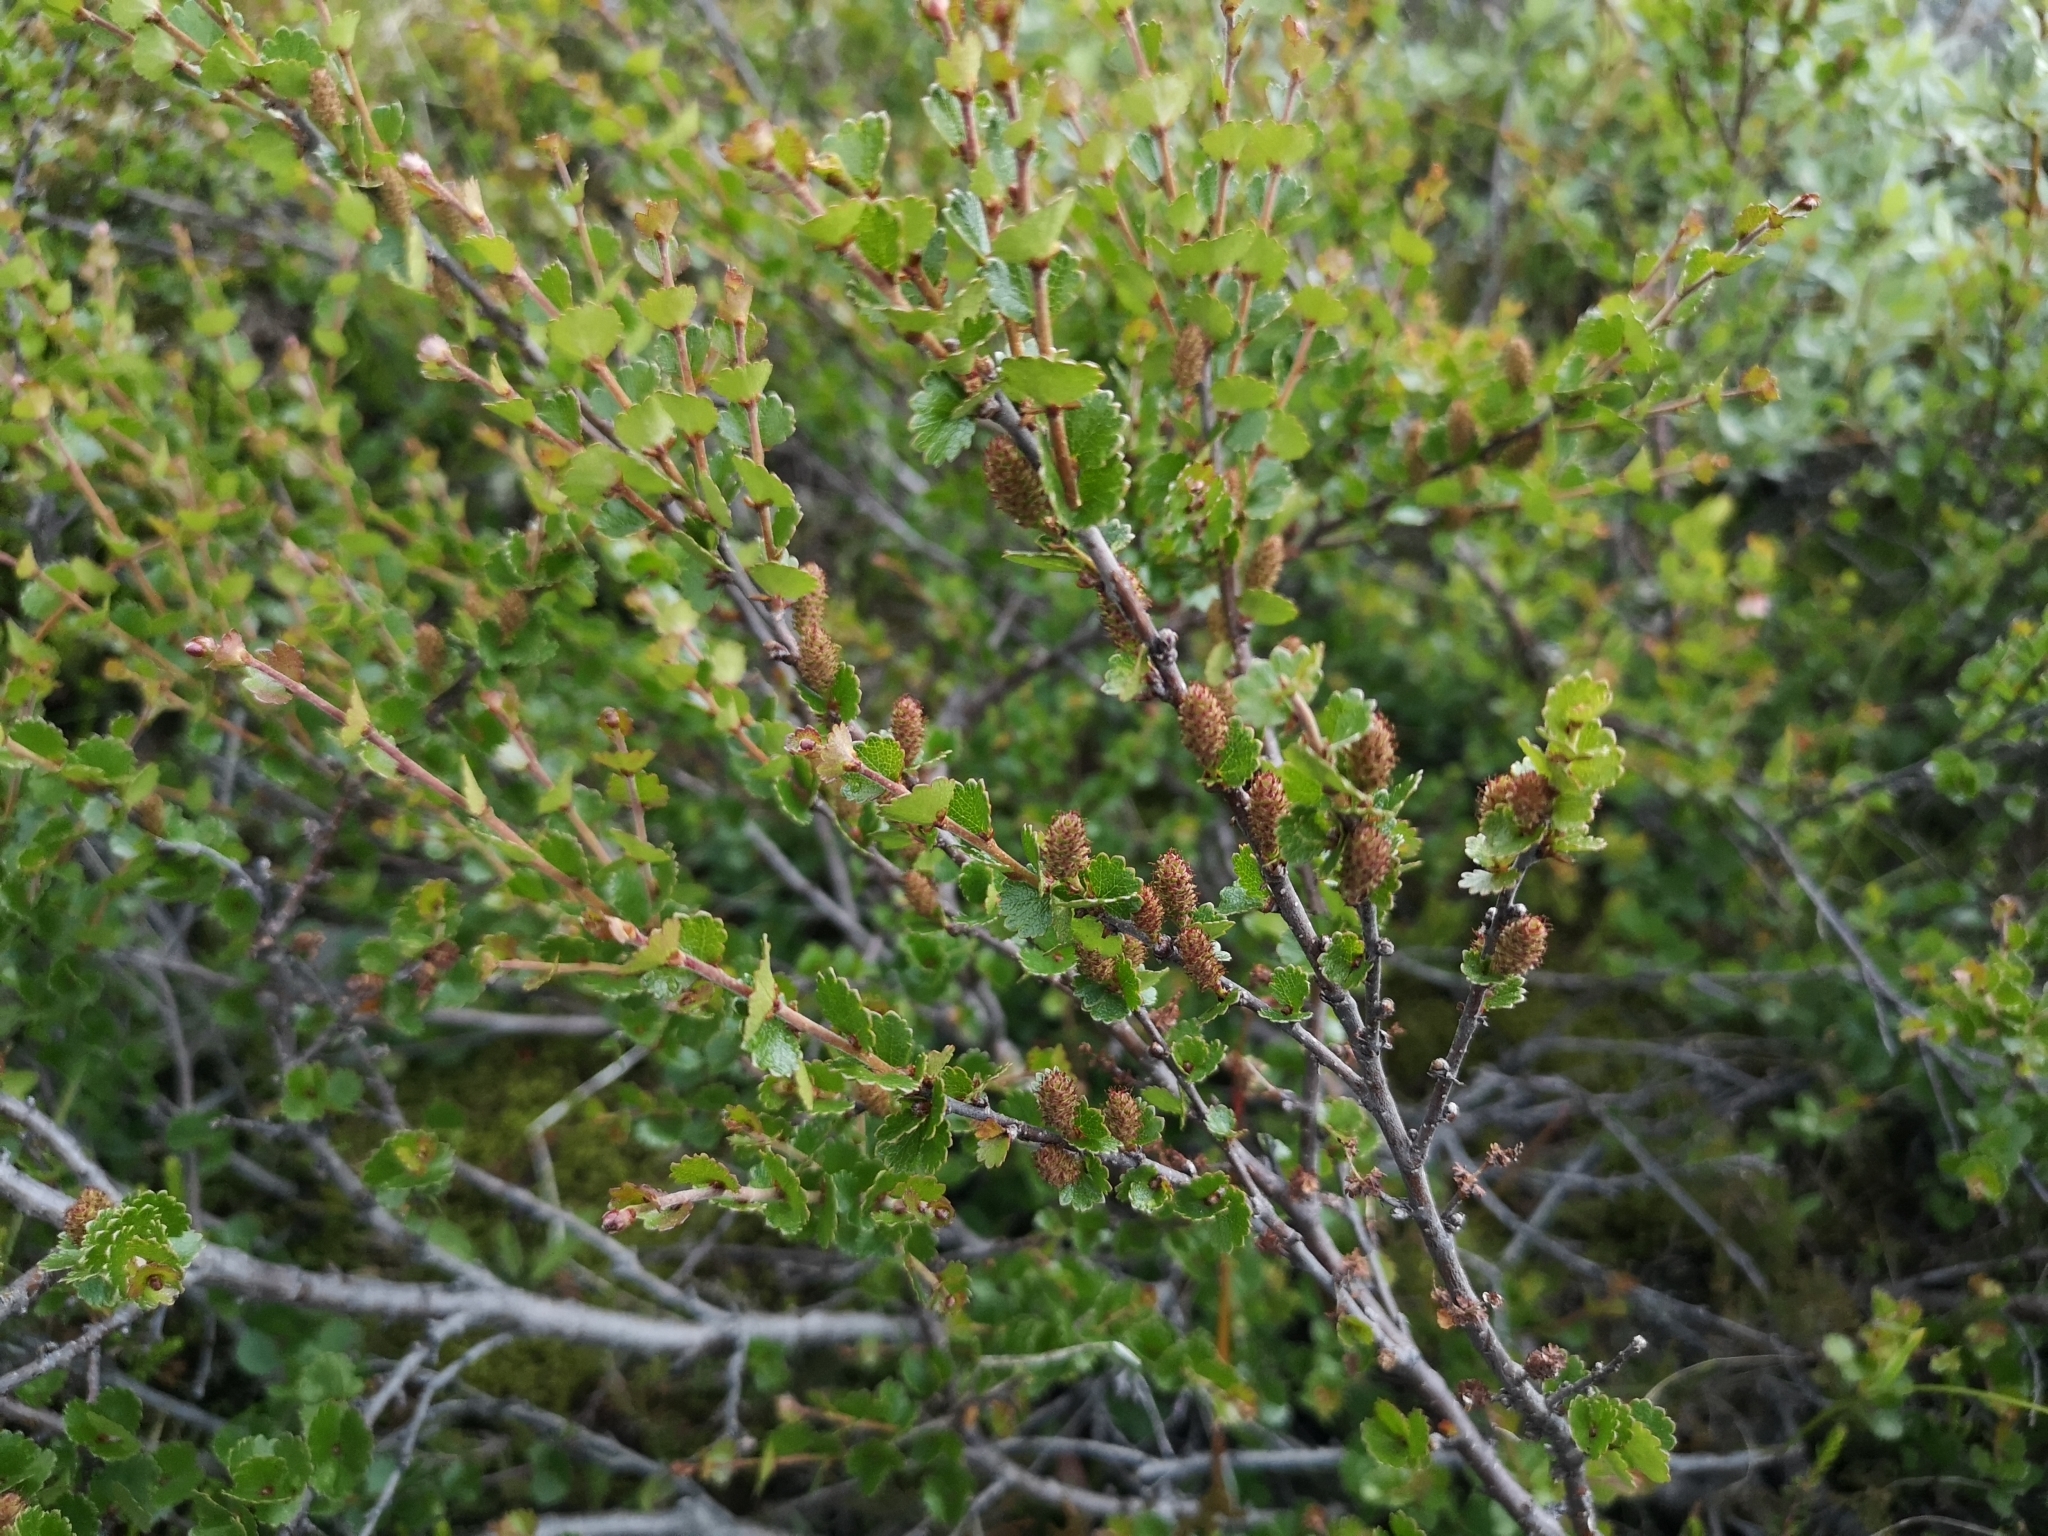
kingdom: Plantae
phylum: Tracheophyta
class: Magnoliopsida
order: Fagales
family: Betulaceae
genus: Betula
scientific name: Betula nana
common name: Arctic dwarf birch
